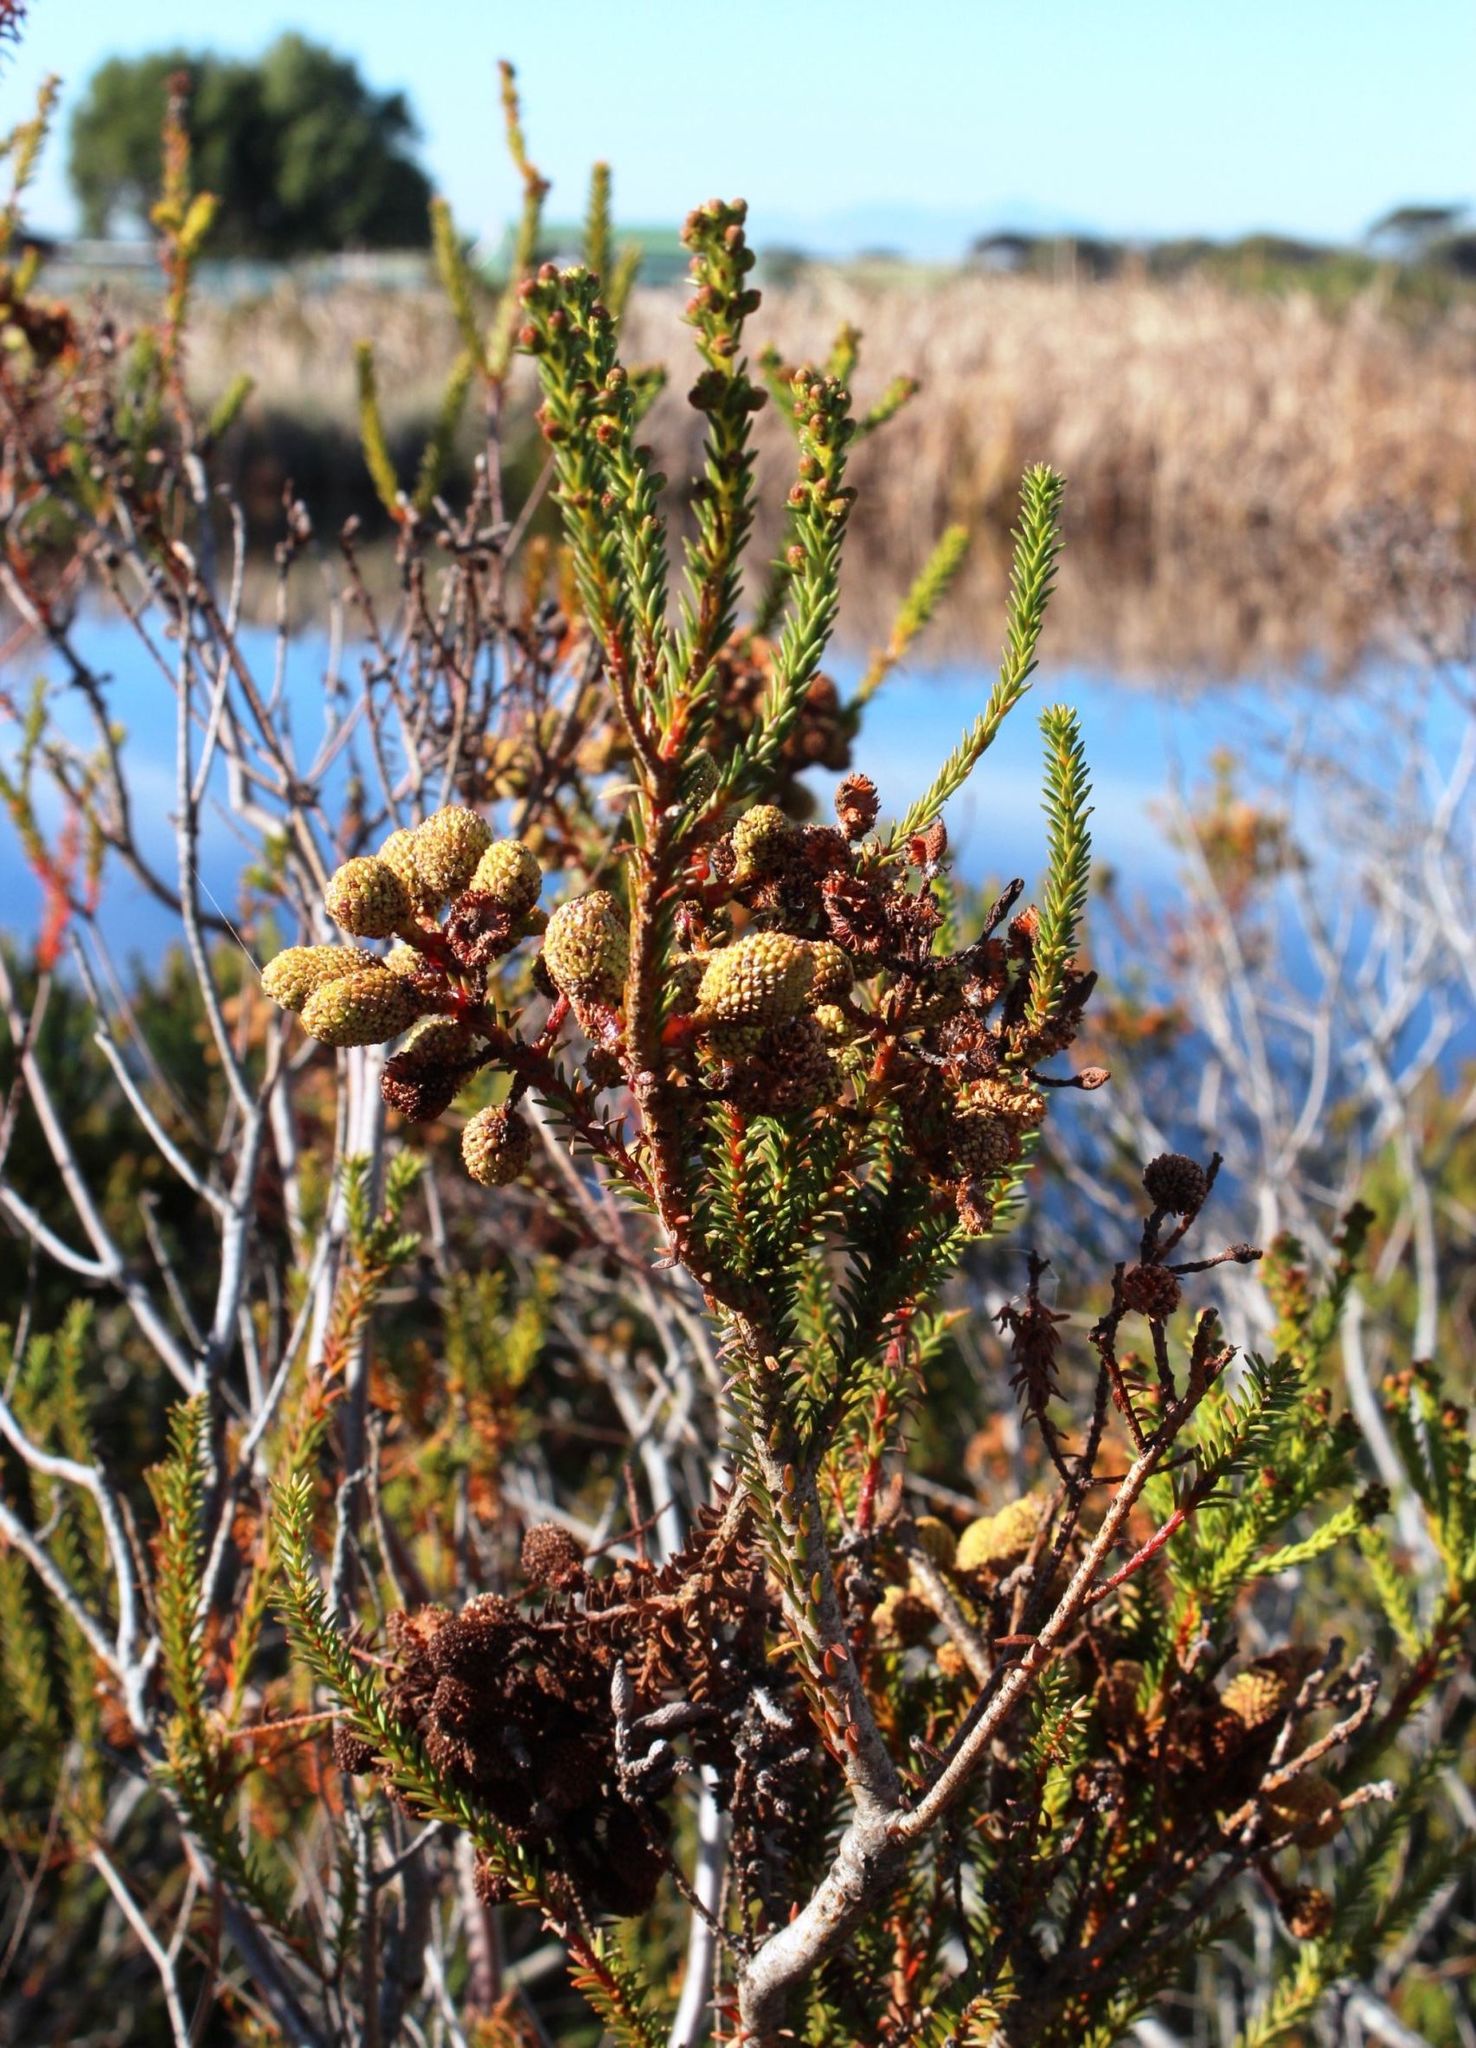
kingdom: Plantae
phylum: Tracheophyta
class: Magnoliopsida
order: Bruniales
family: Bruniaceae
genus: Berzelia
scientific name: Berzelia abrotanoides
